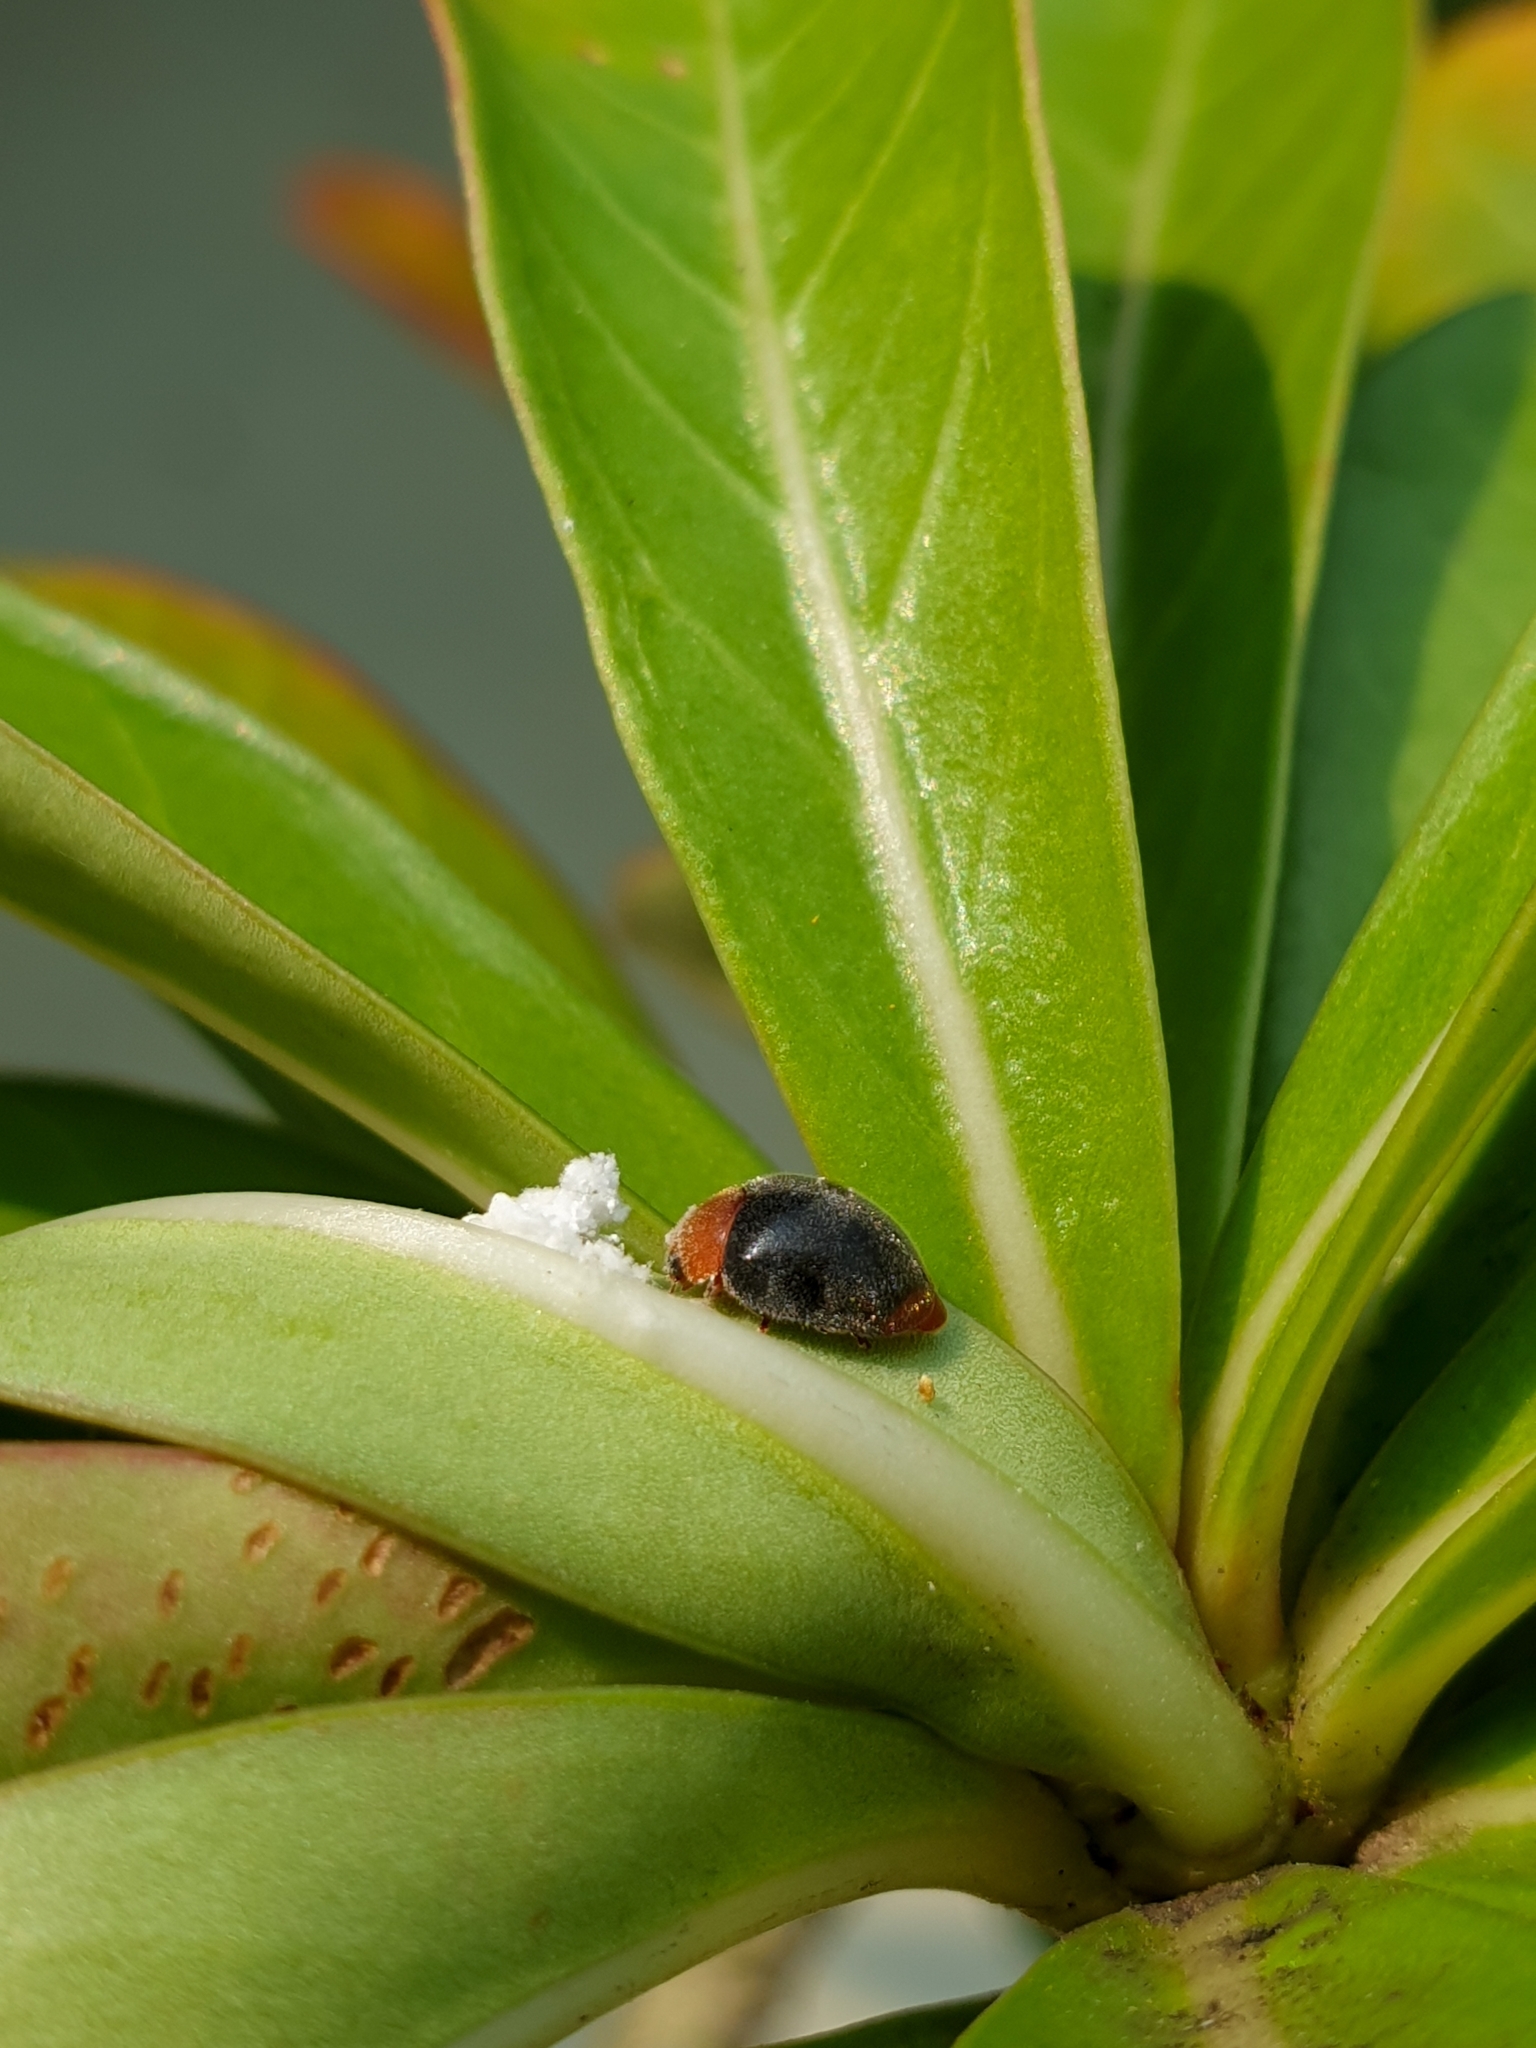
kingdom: Animalia
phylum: Arthropoda
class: Insecta
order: Coleoptera
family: Coccinellidae
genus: Cryptolaemus
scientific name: Cryptolaemus montrouzieri
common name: Mealybug destroyer
